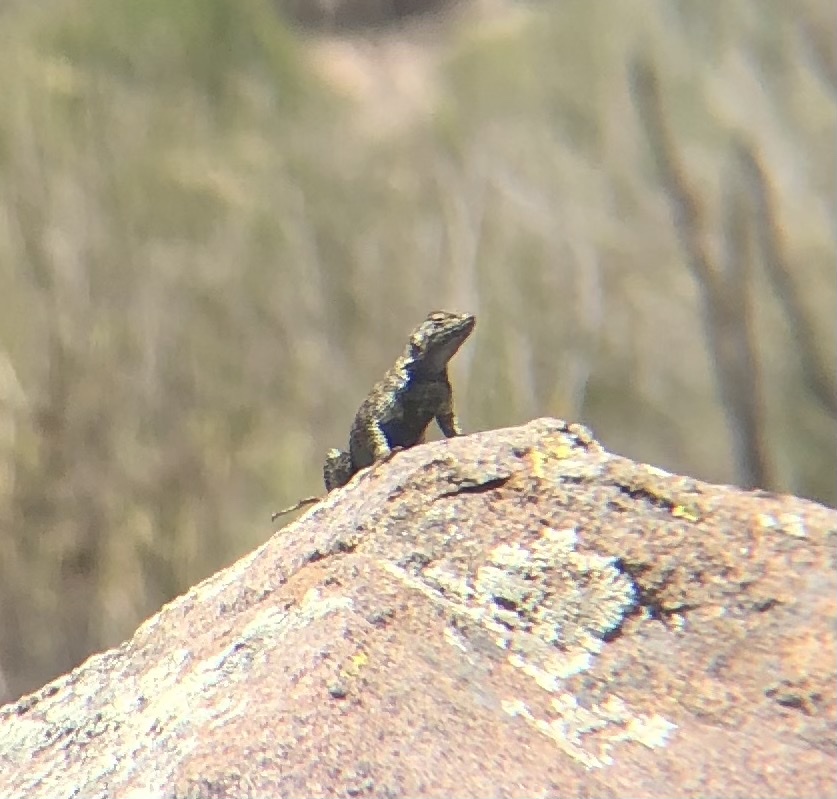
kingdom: Animalia
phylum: Chordata
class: Squamata
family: Phrynosomatidae
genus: Sceloporus
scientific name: Sceloporus orcutti
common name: Granite spiny lizard
